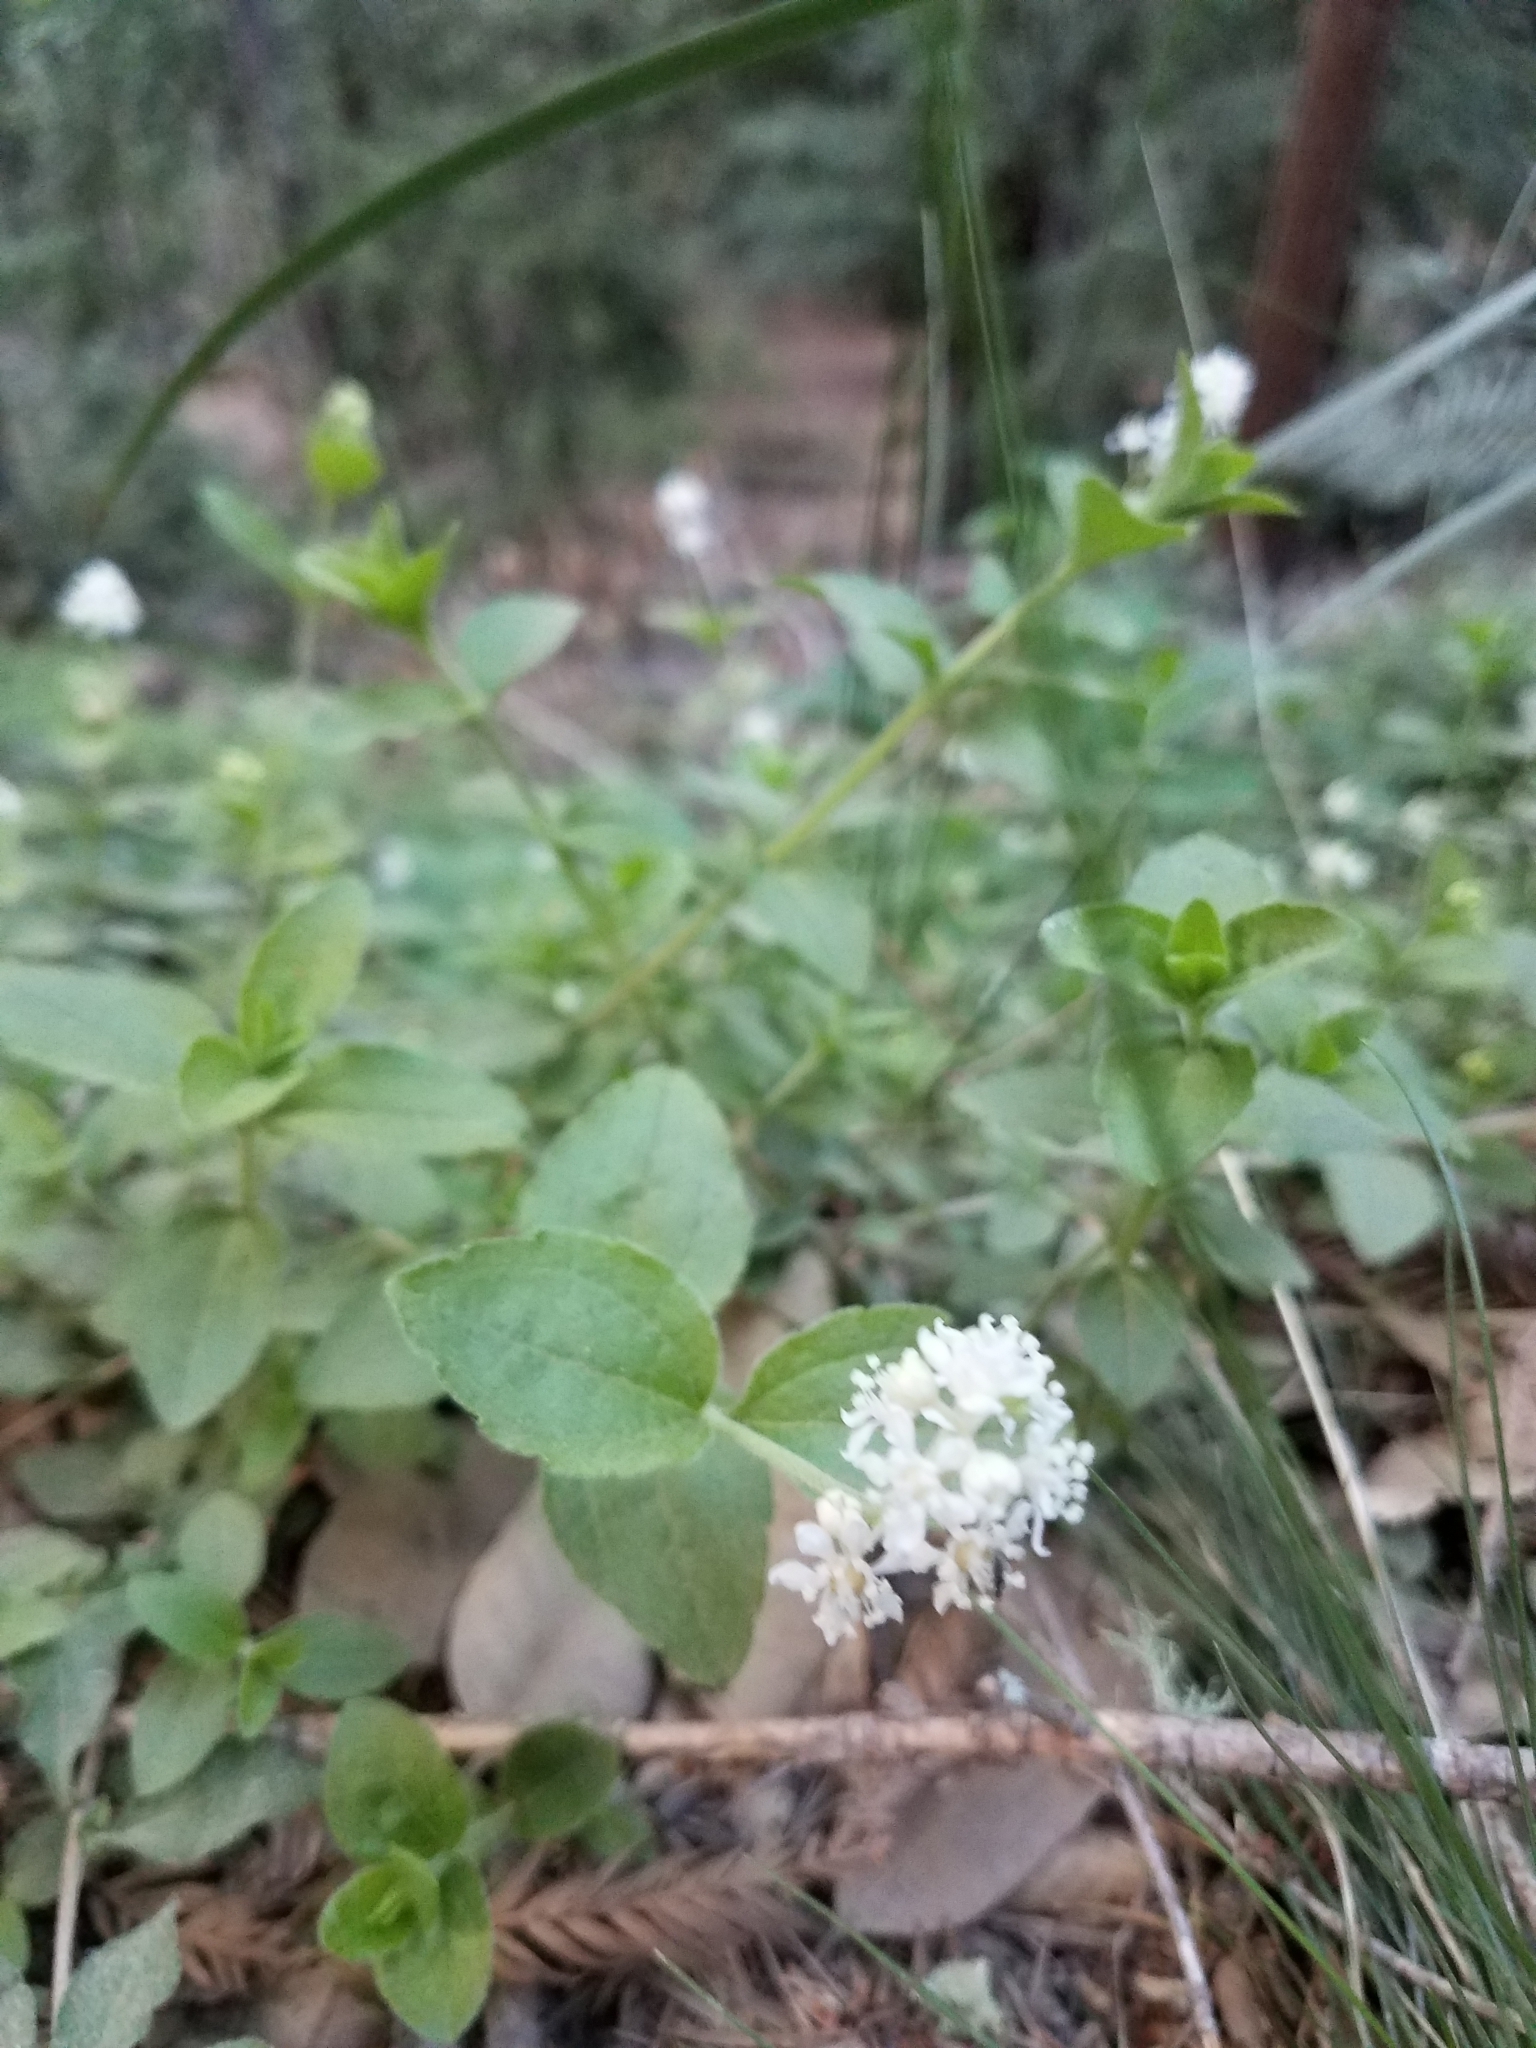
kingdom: Plantae
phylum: Tracheophyta
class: Magnoliopsida
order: Cornales
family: Hydrangeaceae
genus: Whipplea
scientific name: Whipplea modesta
